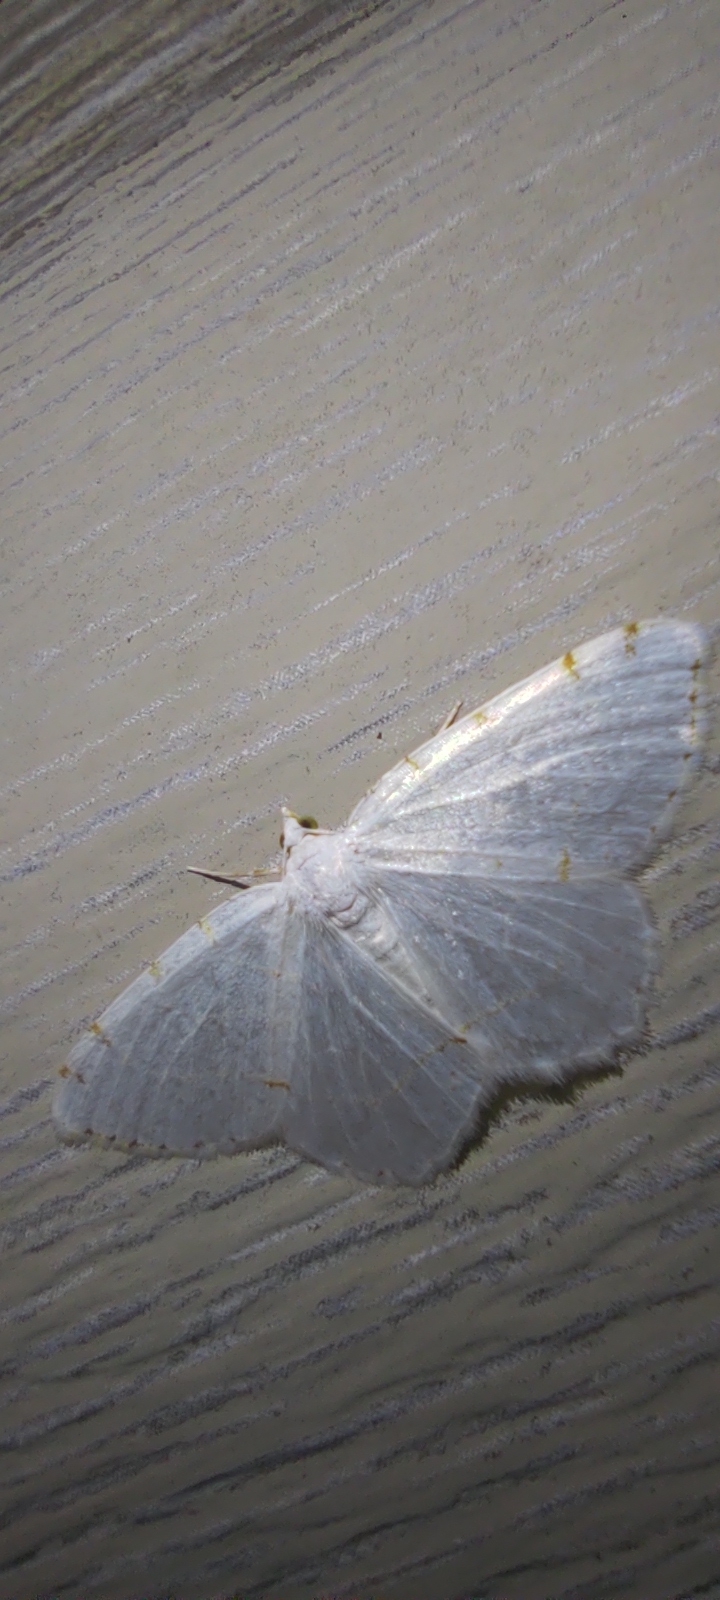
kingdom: Animalia
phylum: Arthropoda
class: Insecta
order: Lepidoptera
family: Geometridae
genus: Macaria
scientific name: Macaria pustularia
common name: Lesser maple spanworm moth
